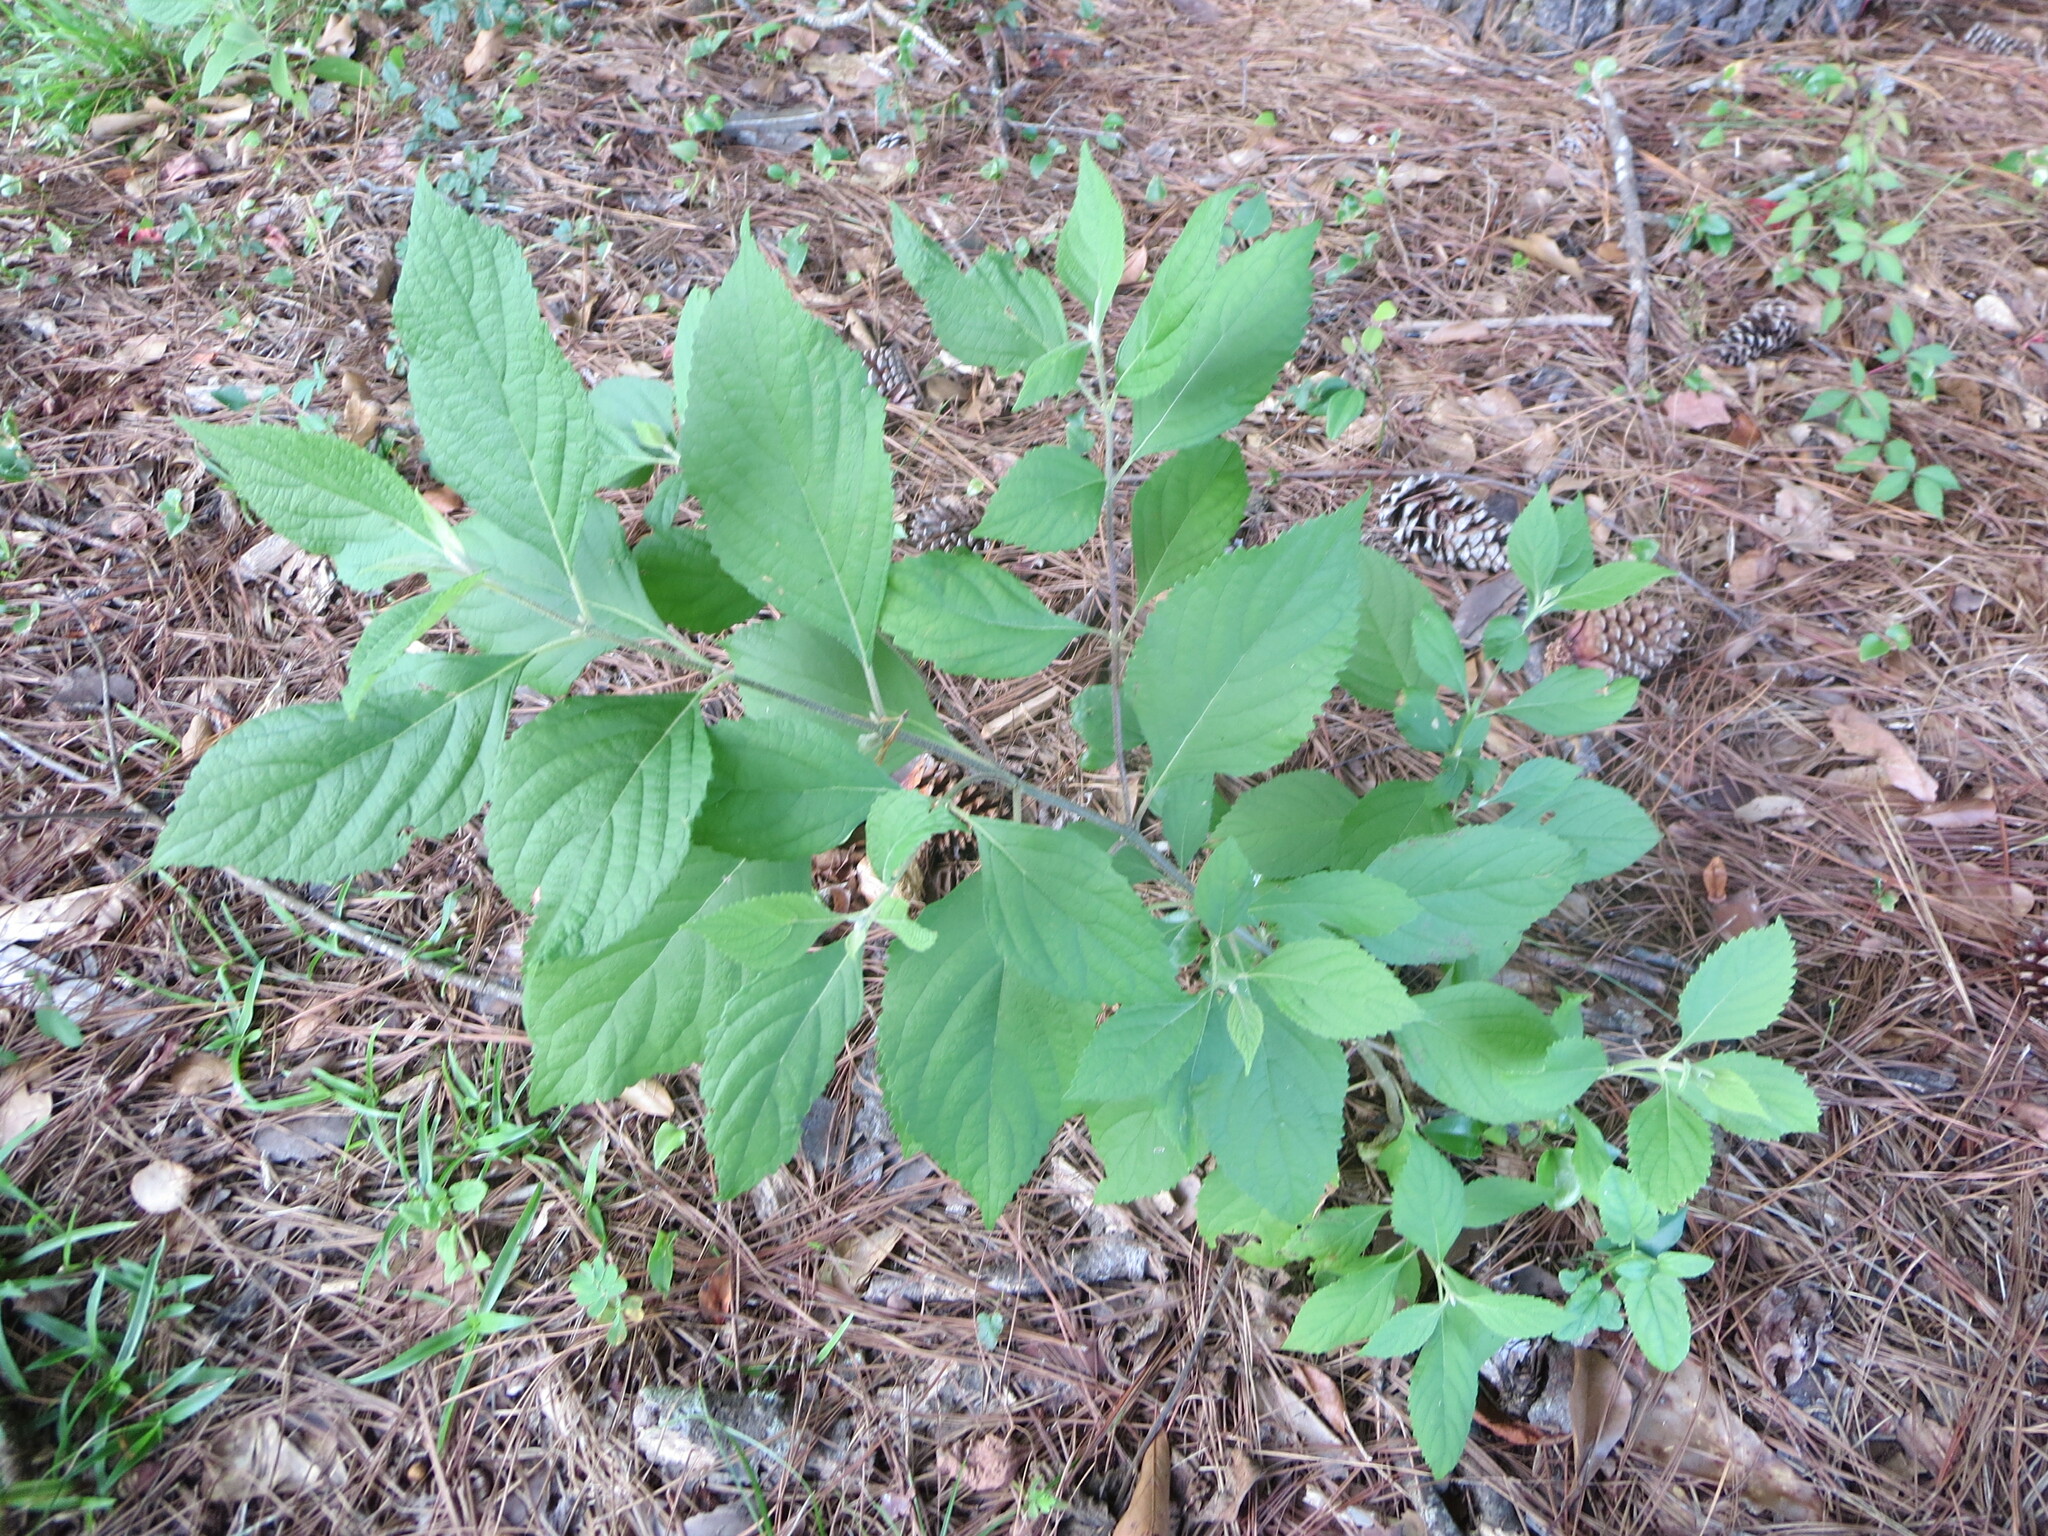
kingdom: Plantae
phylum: Tracheophyta
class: Magnoliopsida
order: Lamiales
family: Lamiaceae
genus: Callicarpa
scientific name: Callicarpa americana
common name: American beautyberry
